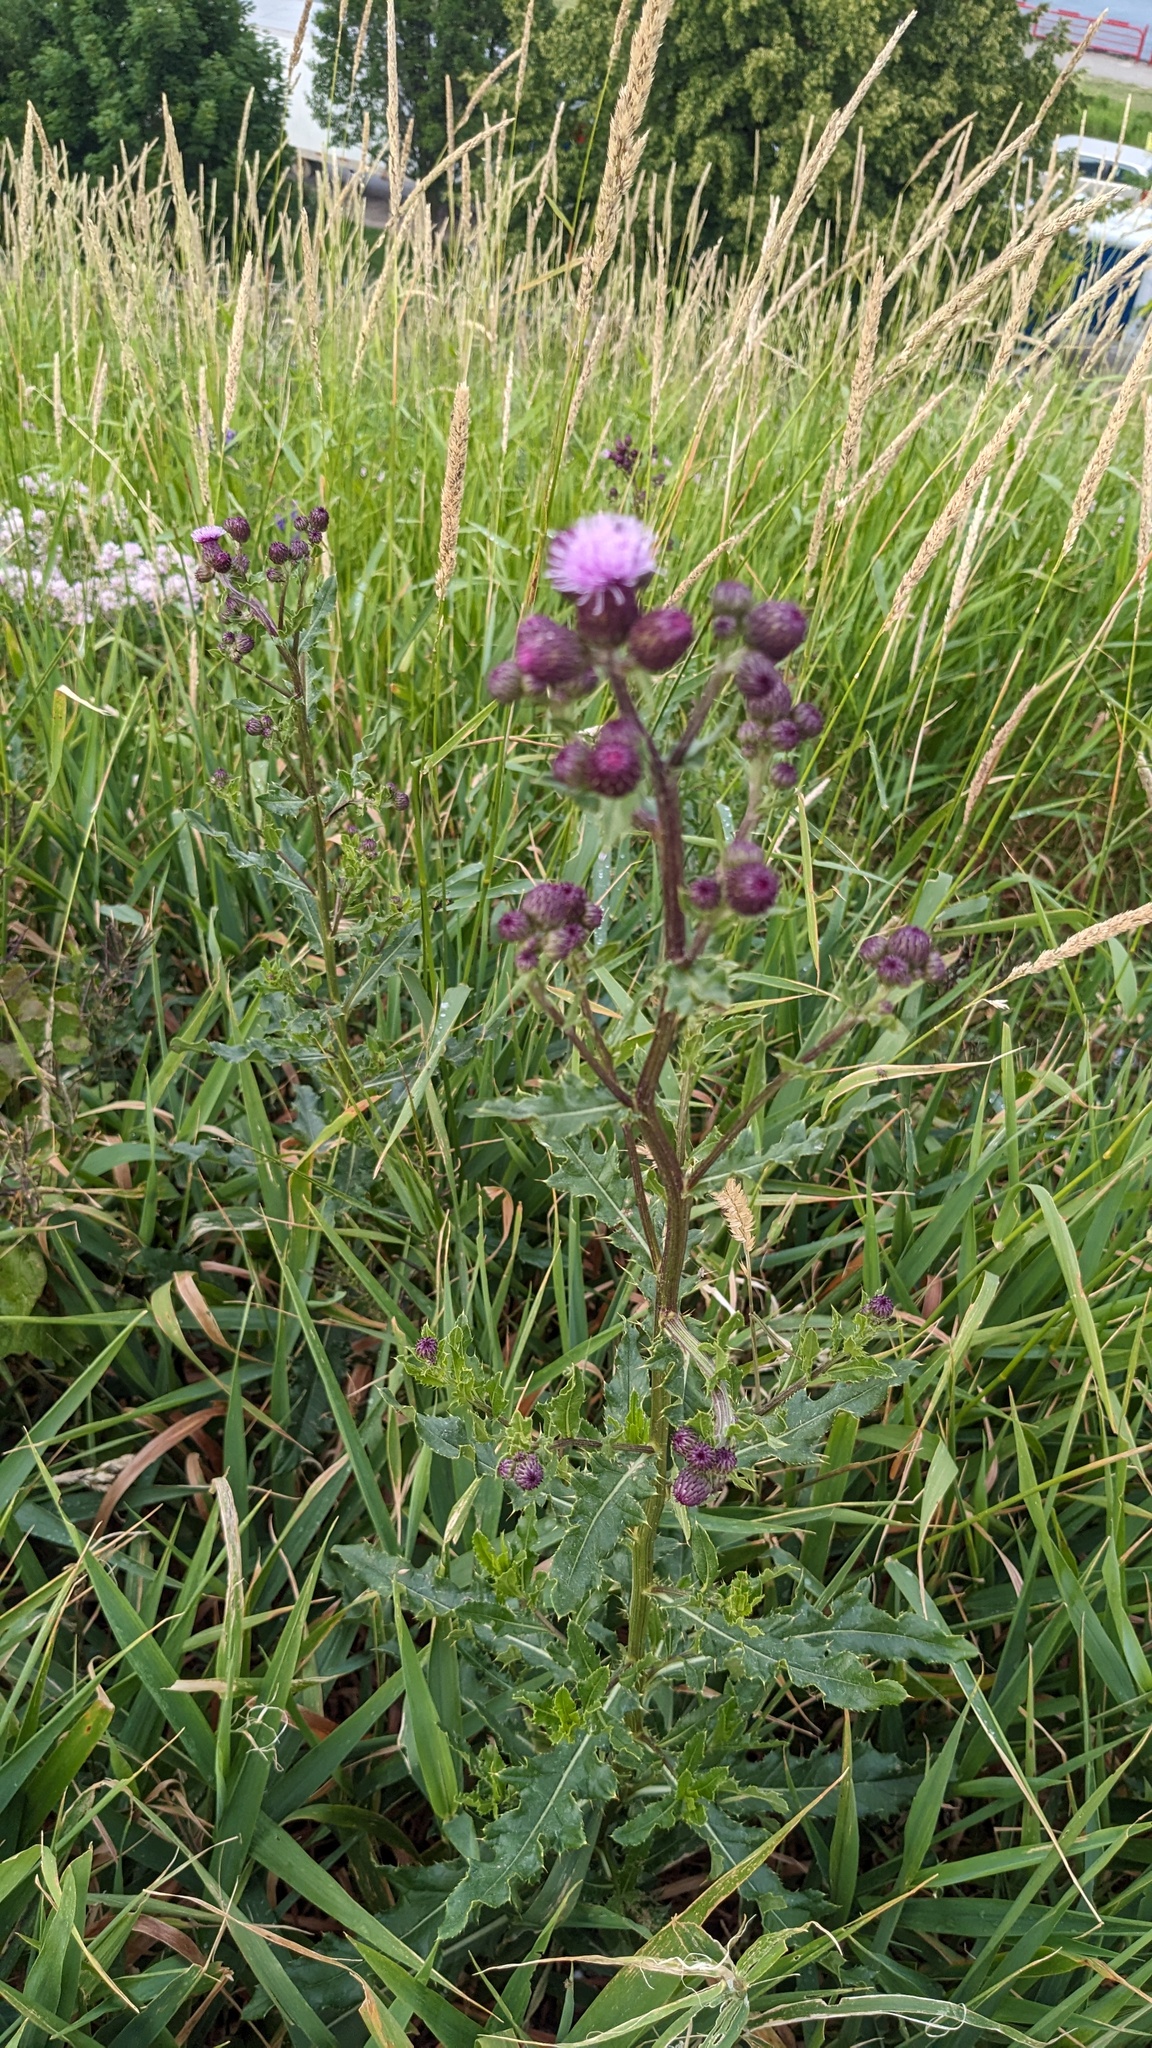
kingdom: Plantae
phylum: Tracheophyta
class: Magnoliopsida
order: Asterales
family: Asteraceae
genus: Cirsium
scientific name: Cirsium arvense
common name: Creeping thistle
